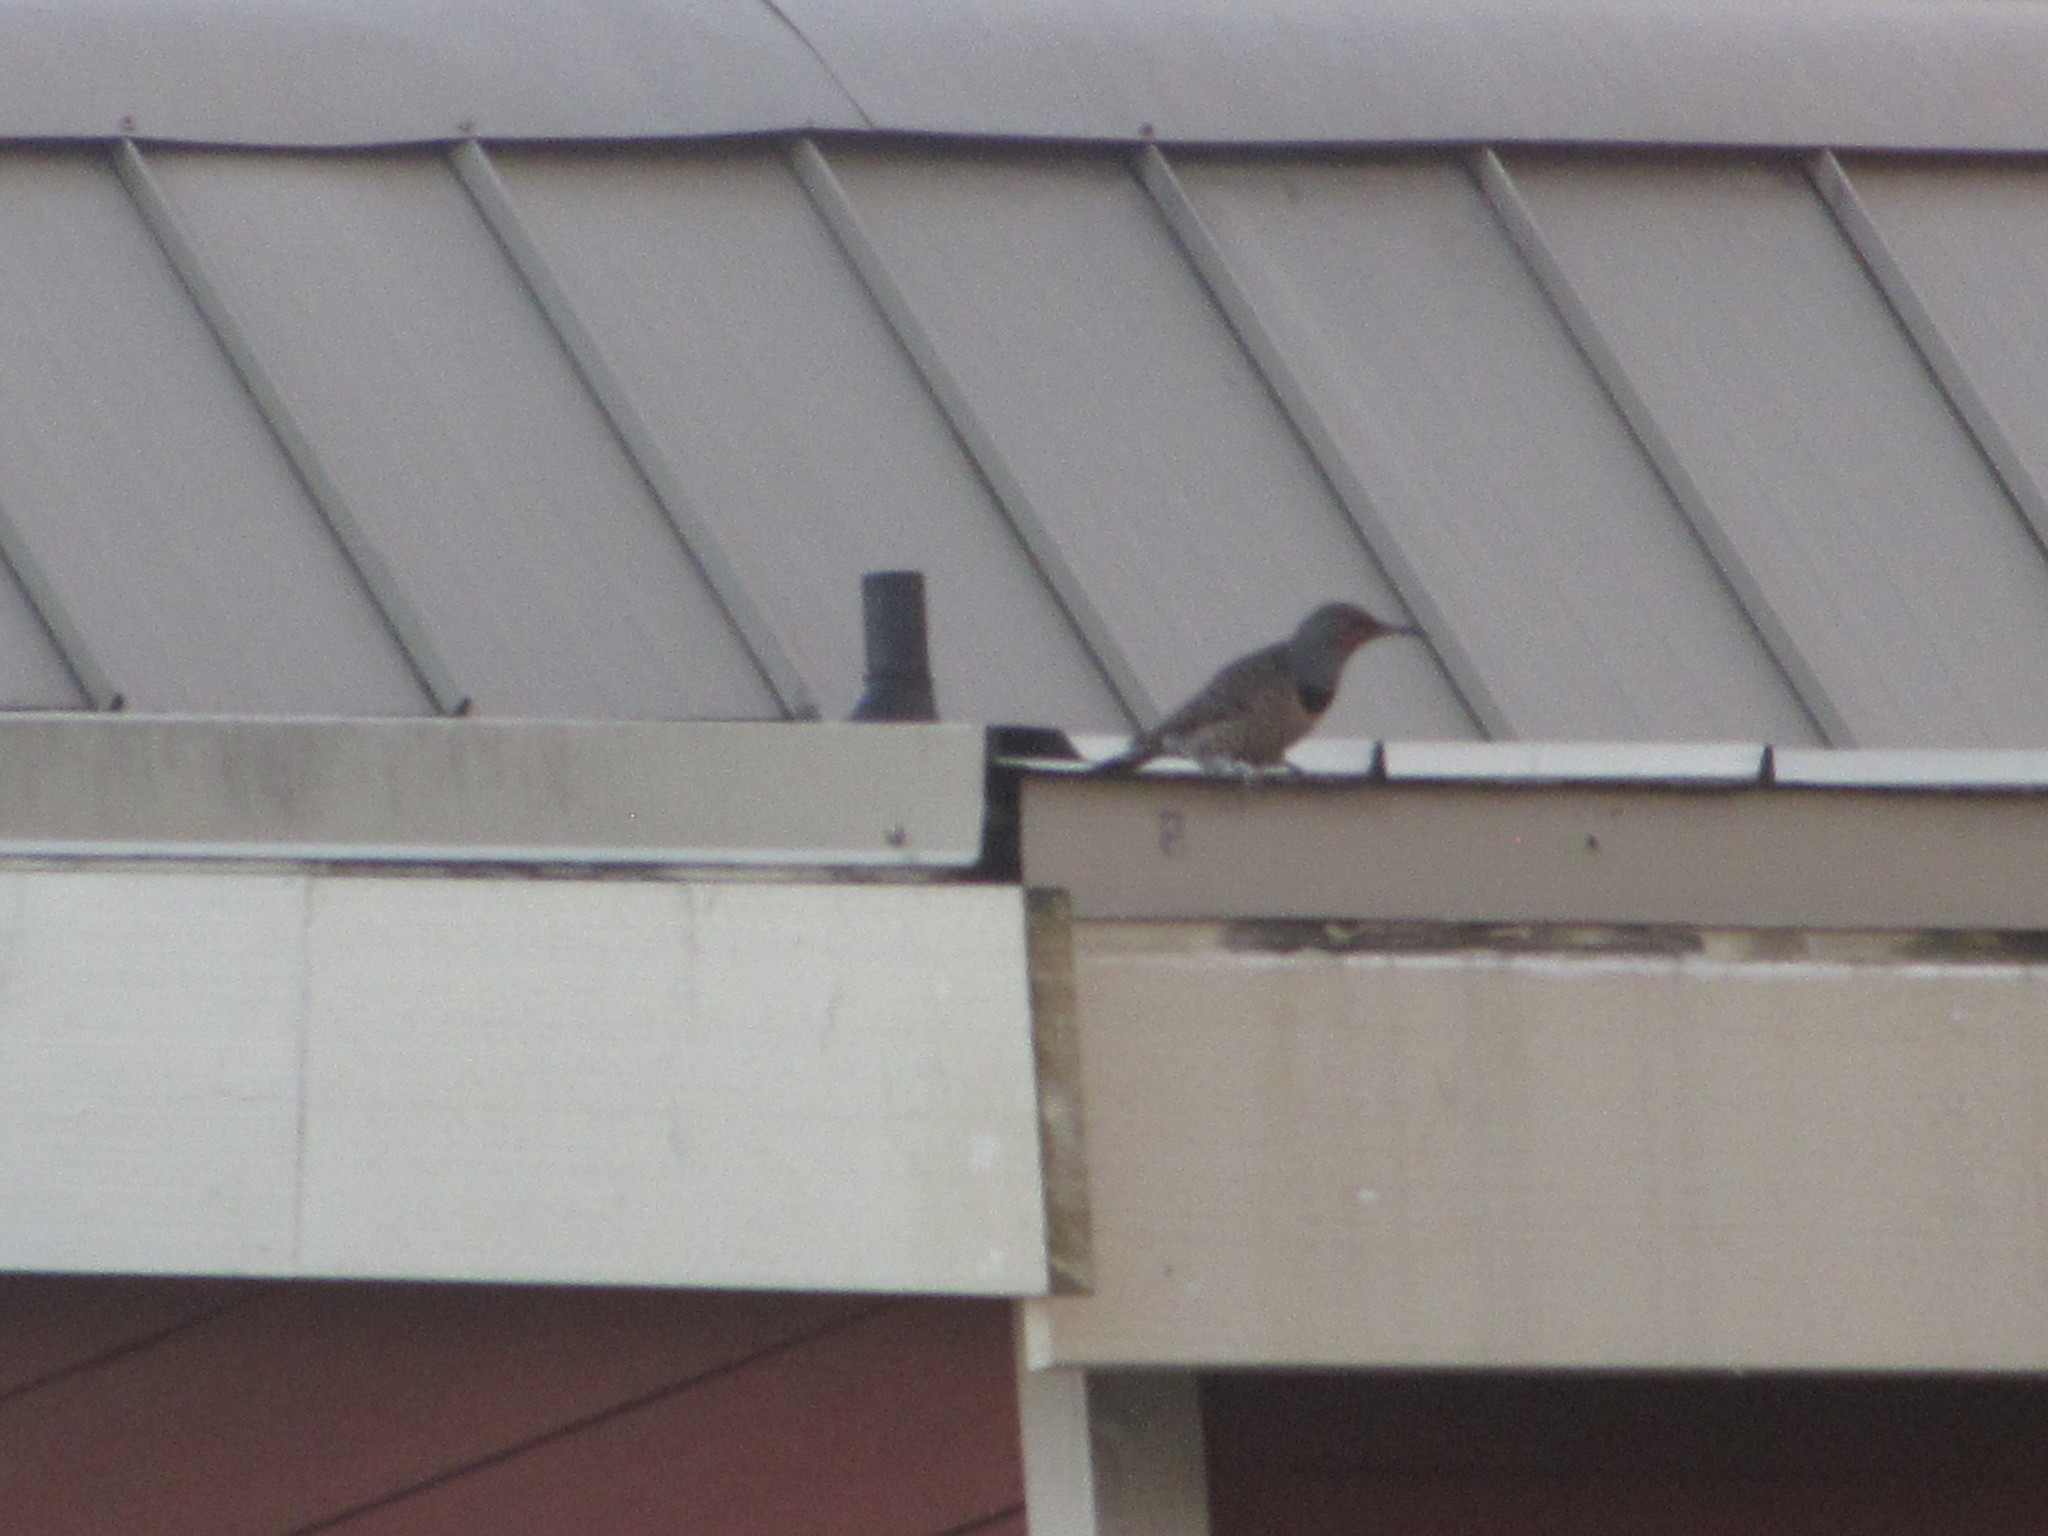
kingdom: Animalia
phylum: Chordata
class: Aves
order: Piciformes
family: Picidae
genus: Colaptes
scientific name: Colaptes auratus
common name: Northern flicker
